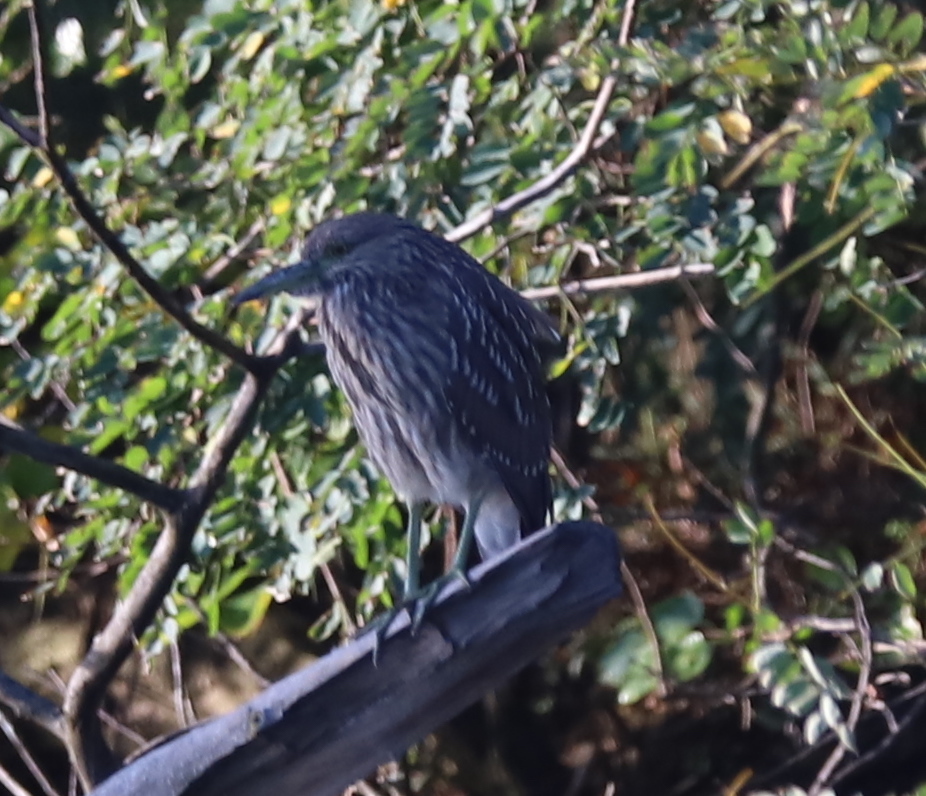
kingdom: Animalia
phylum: Chordata
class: Aves
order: Pelecaniformes
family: Ardeidae
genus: Nycticorax
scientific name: Nycticorax nycticorax
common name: Black-crowned night heron
